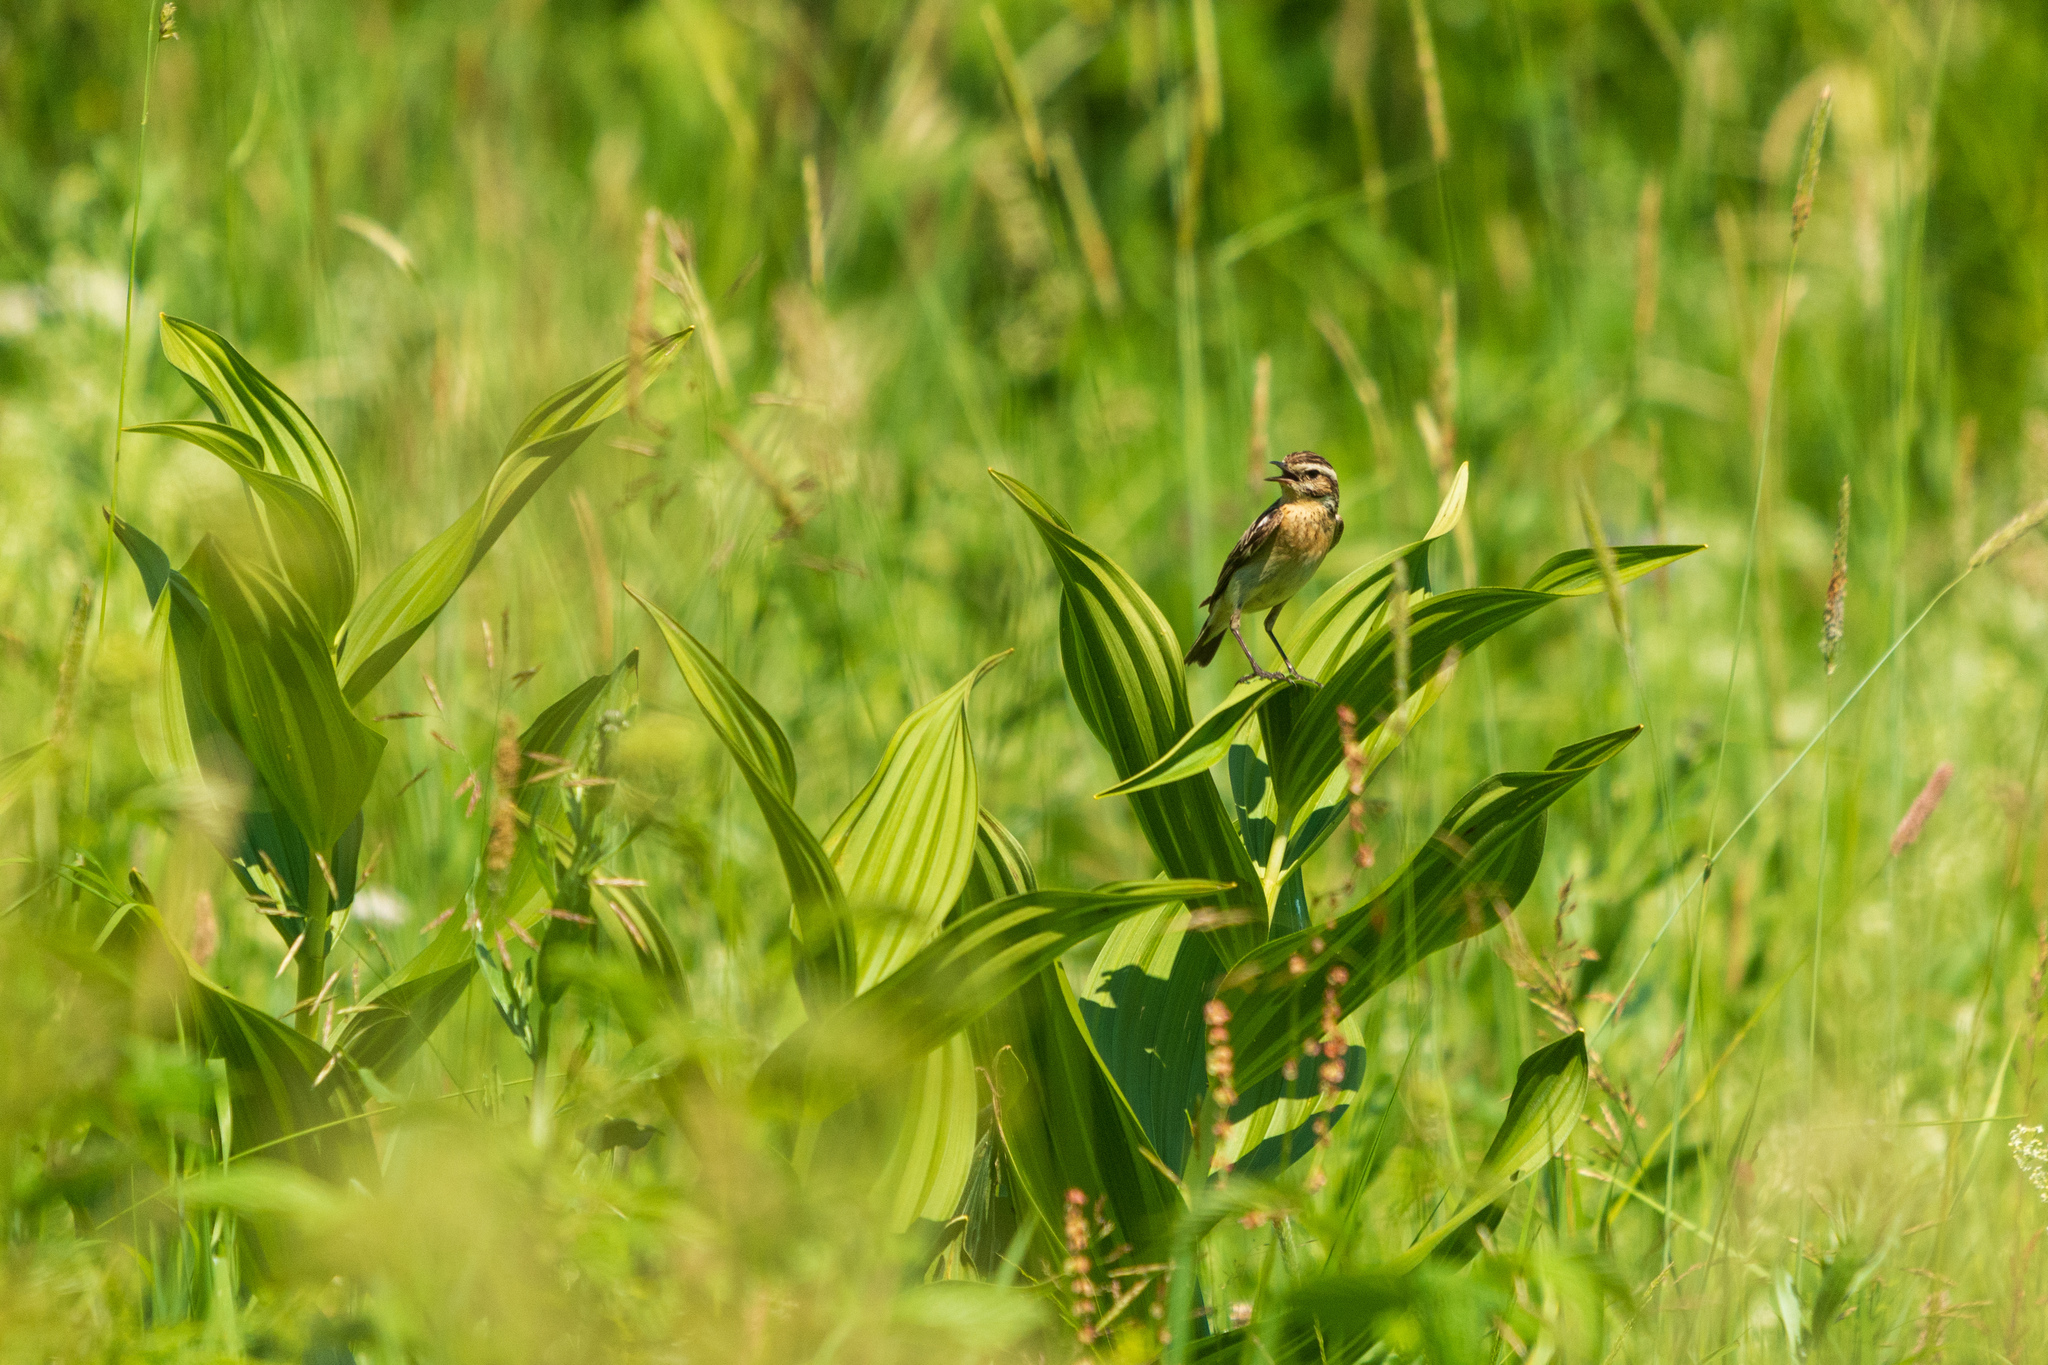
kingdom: Animalia
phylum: Chordata
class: Aves
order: Passeriformes
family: Muscicapidae
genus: Saxicola
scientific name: Saxicola rubetra
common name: Whinchat
